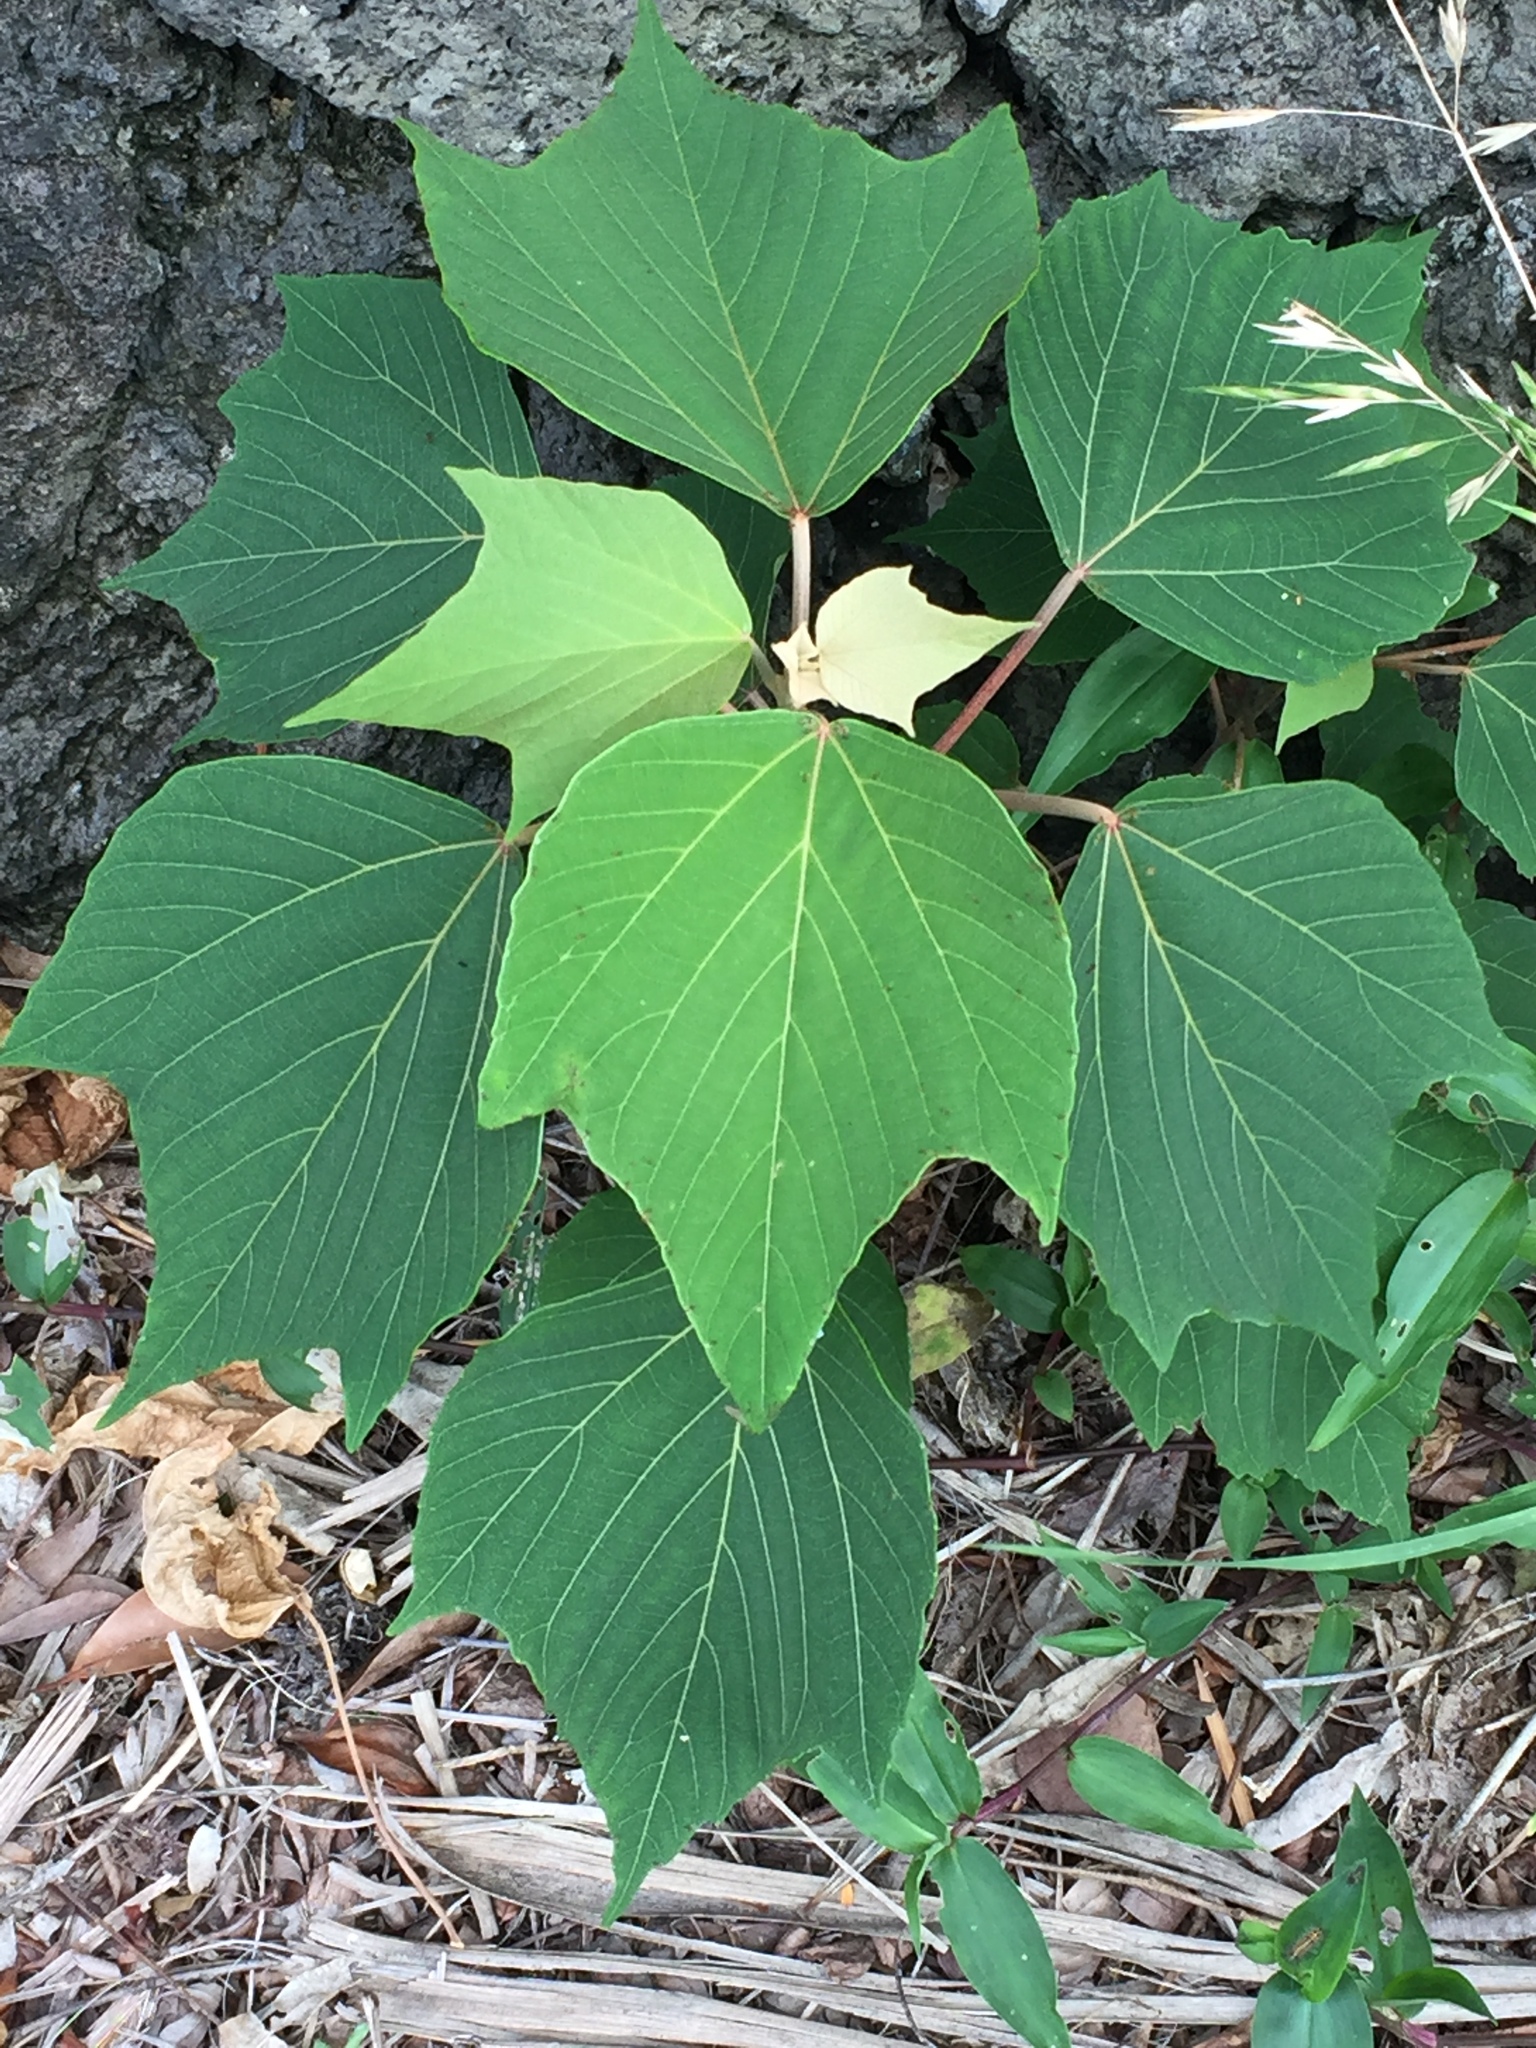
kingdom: Plantae
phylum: Tracheophyta
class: Magnoliopsida
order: Malpighiales
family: Euphorbiaceae
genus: Mallotus
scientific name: Mallotus japonicus
